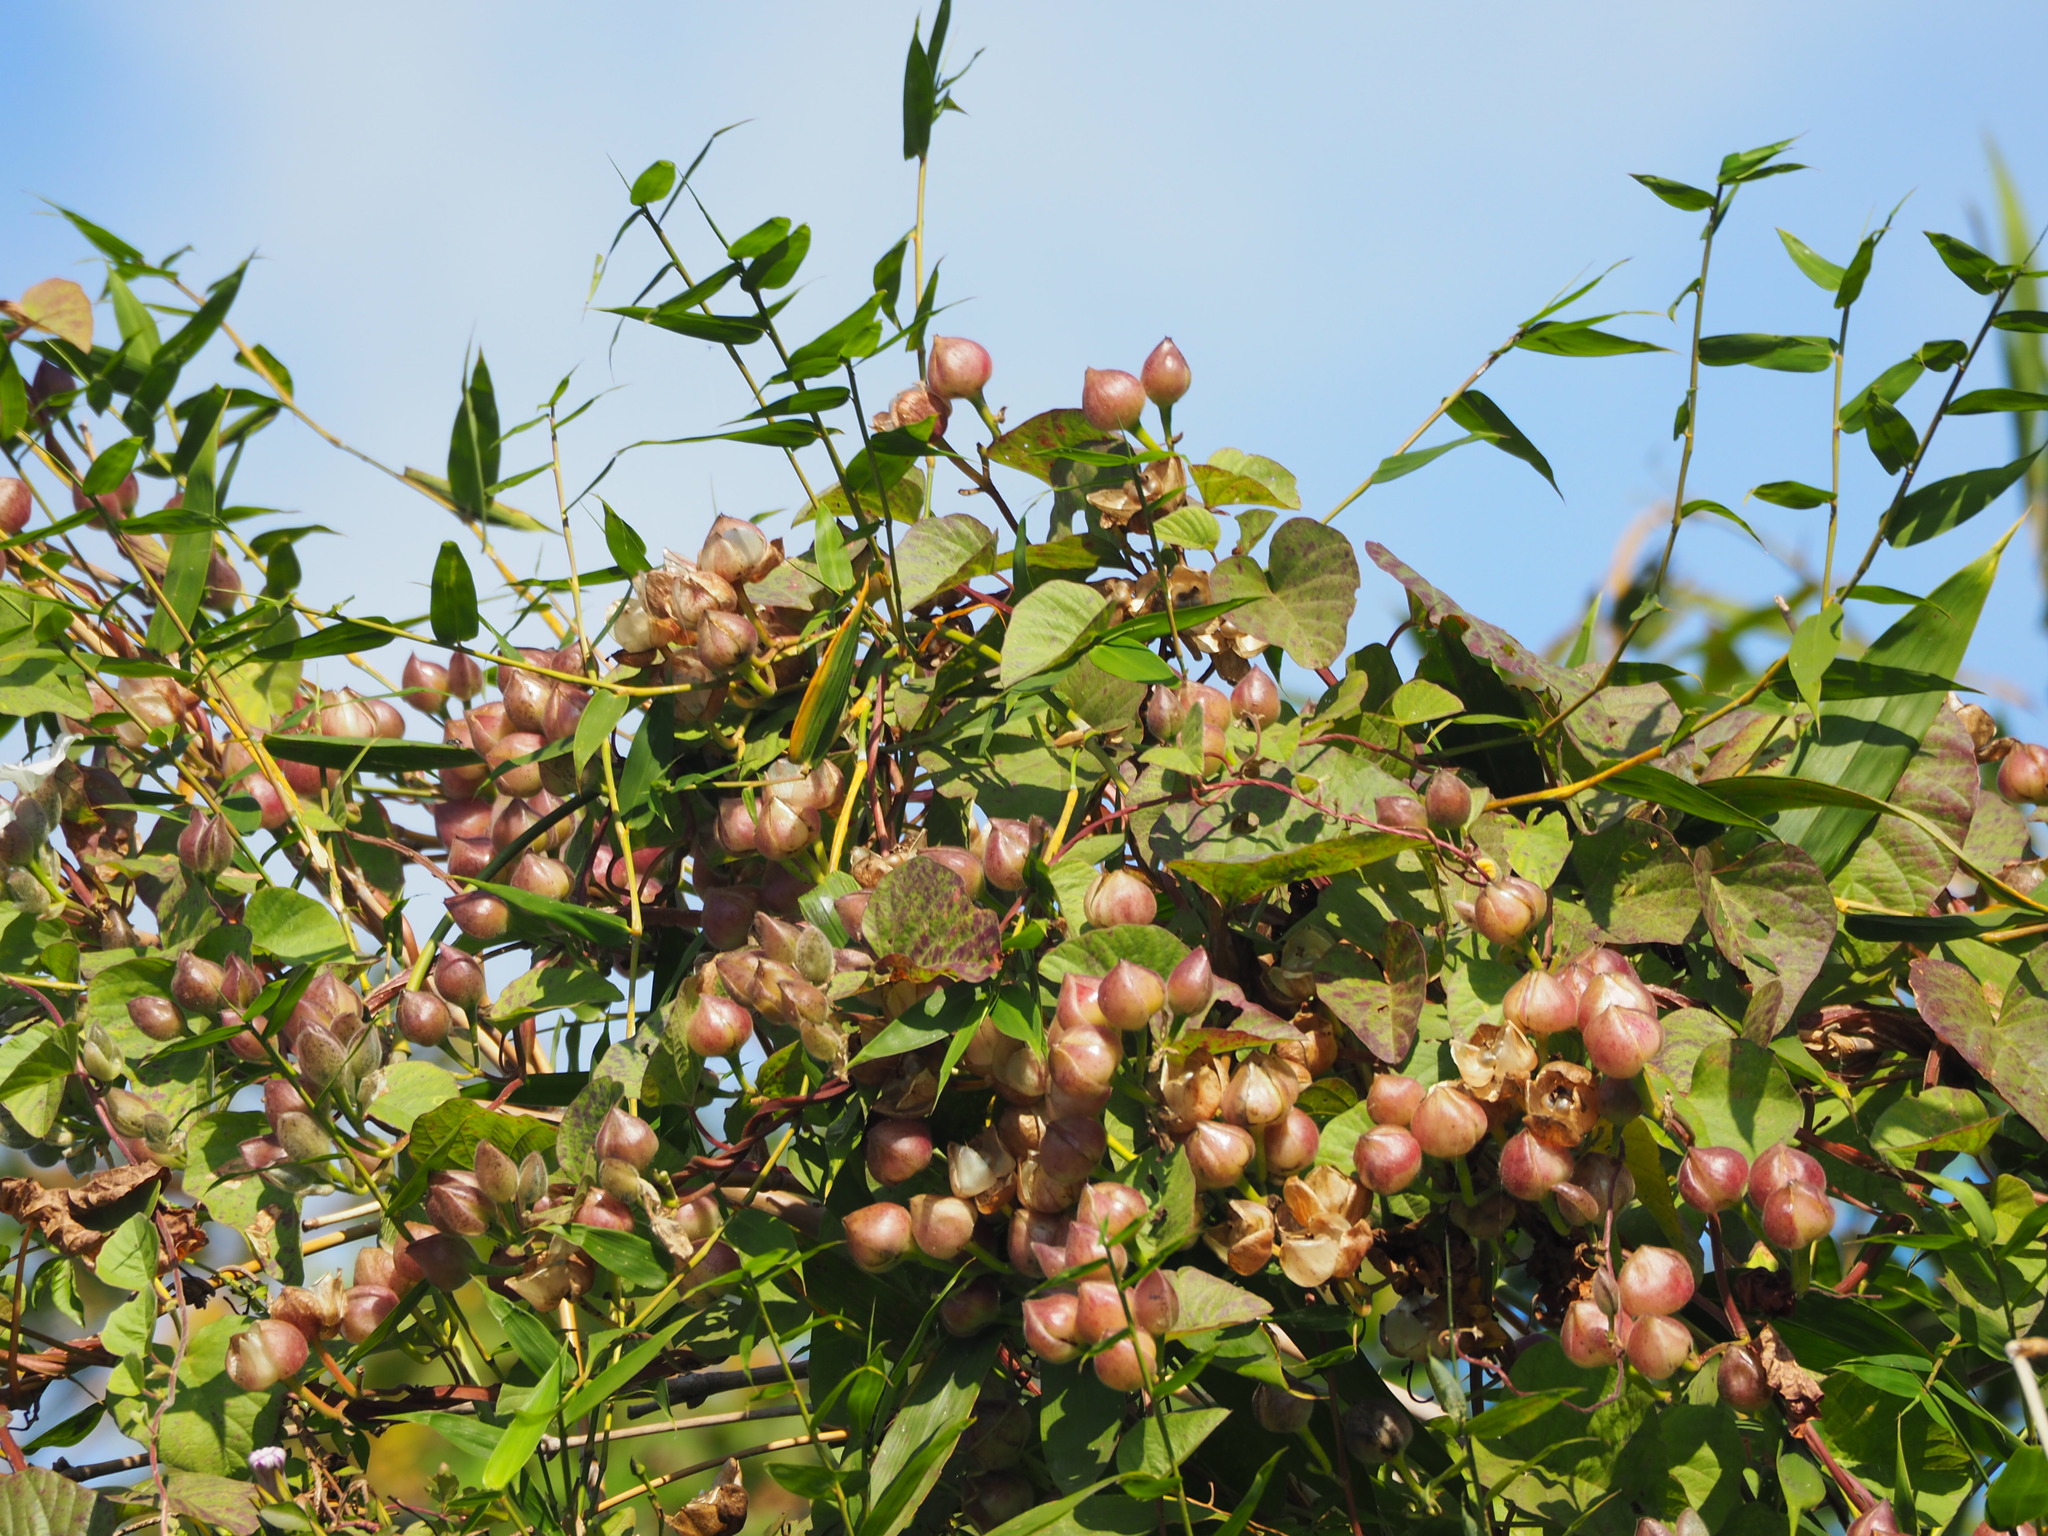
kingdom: Plantae
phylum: Tracheophyta
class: Magnoliopsida
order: Solanales
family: Convolvulaceae
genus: Operculina
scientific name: Operculina turpethum
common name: Transparent wood-rose
